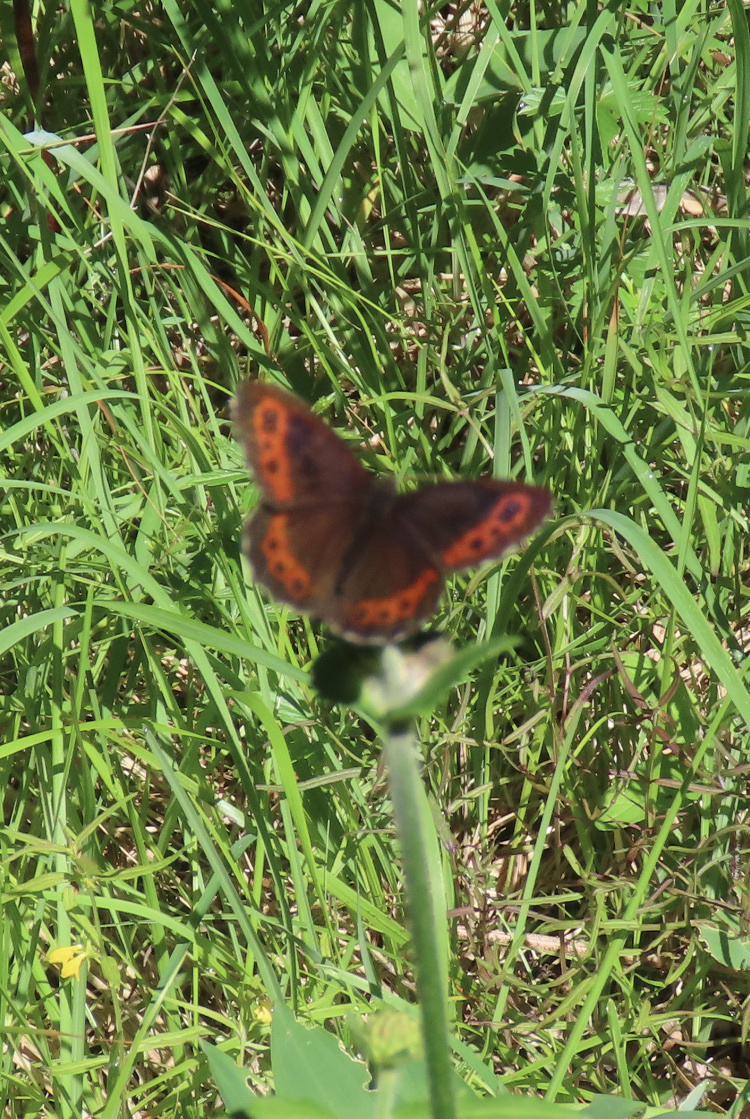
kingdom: Animalia
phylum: Arthropoda
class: Insecta
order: Lepidoptera
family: Nymphalidae
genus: Erebia
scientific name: Erebia ligea
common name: Arran brown
